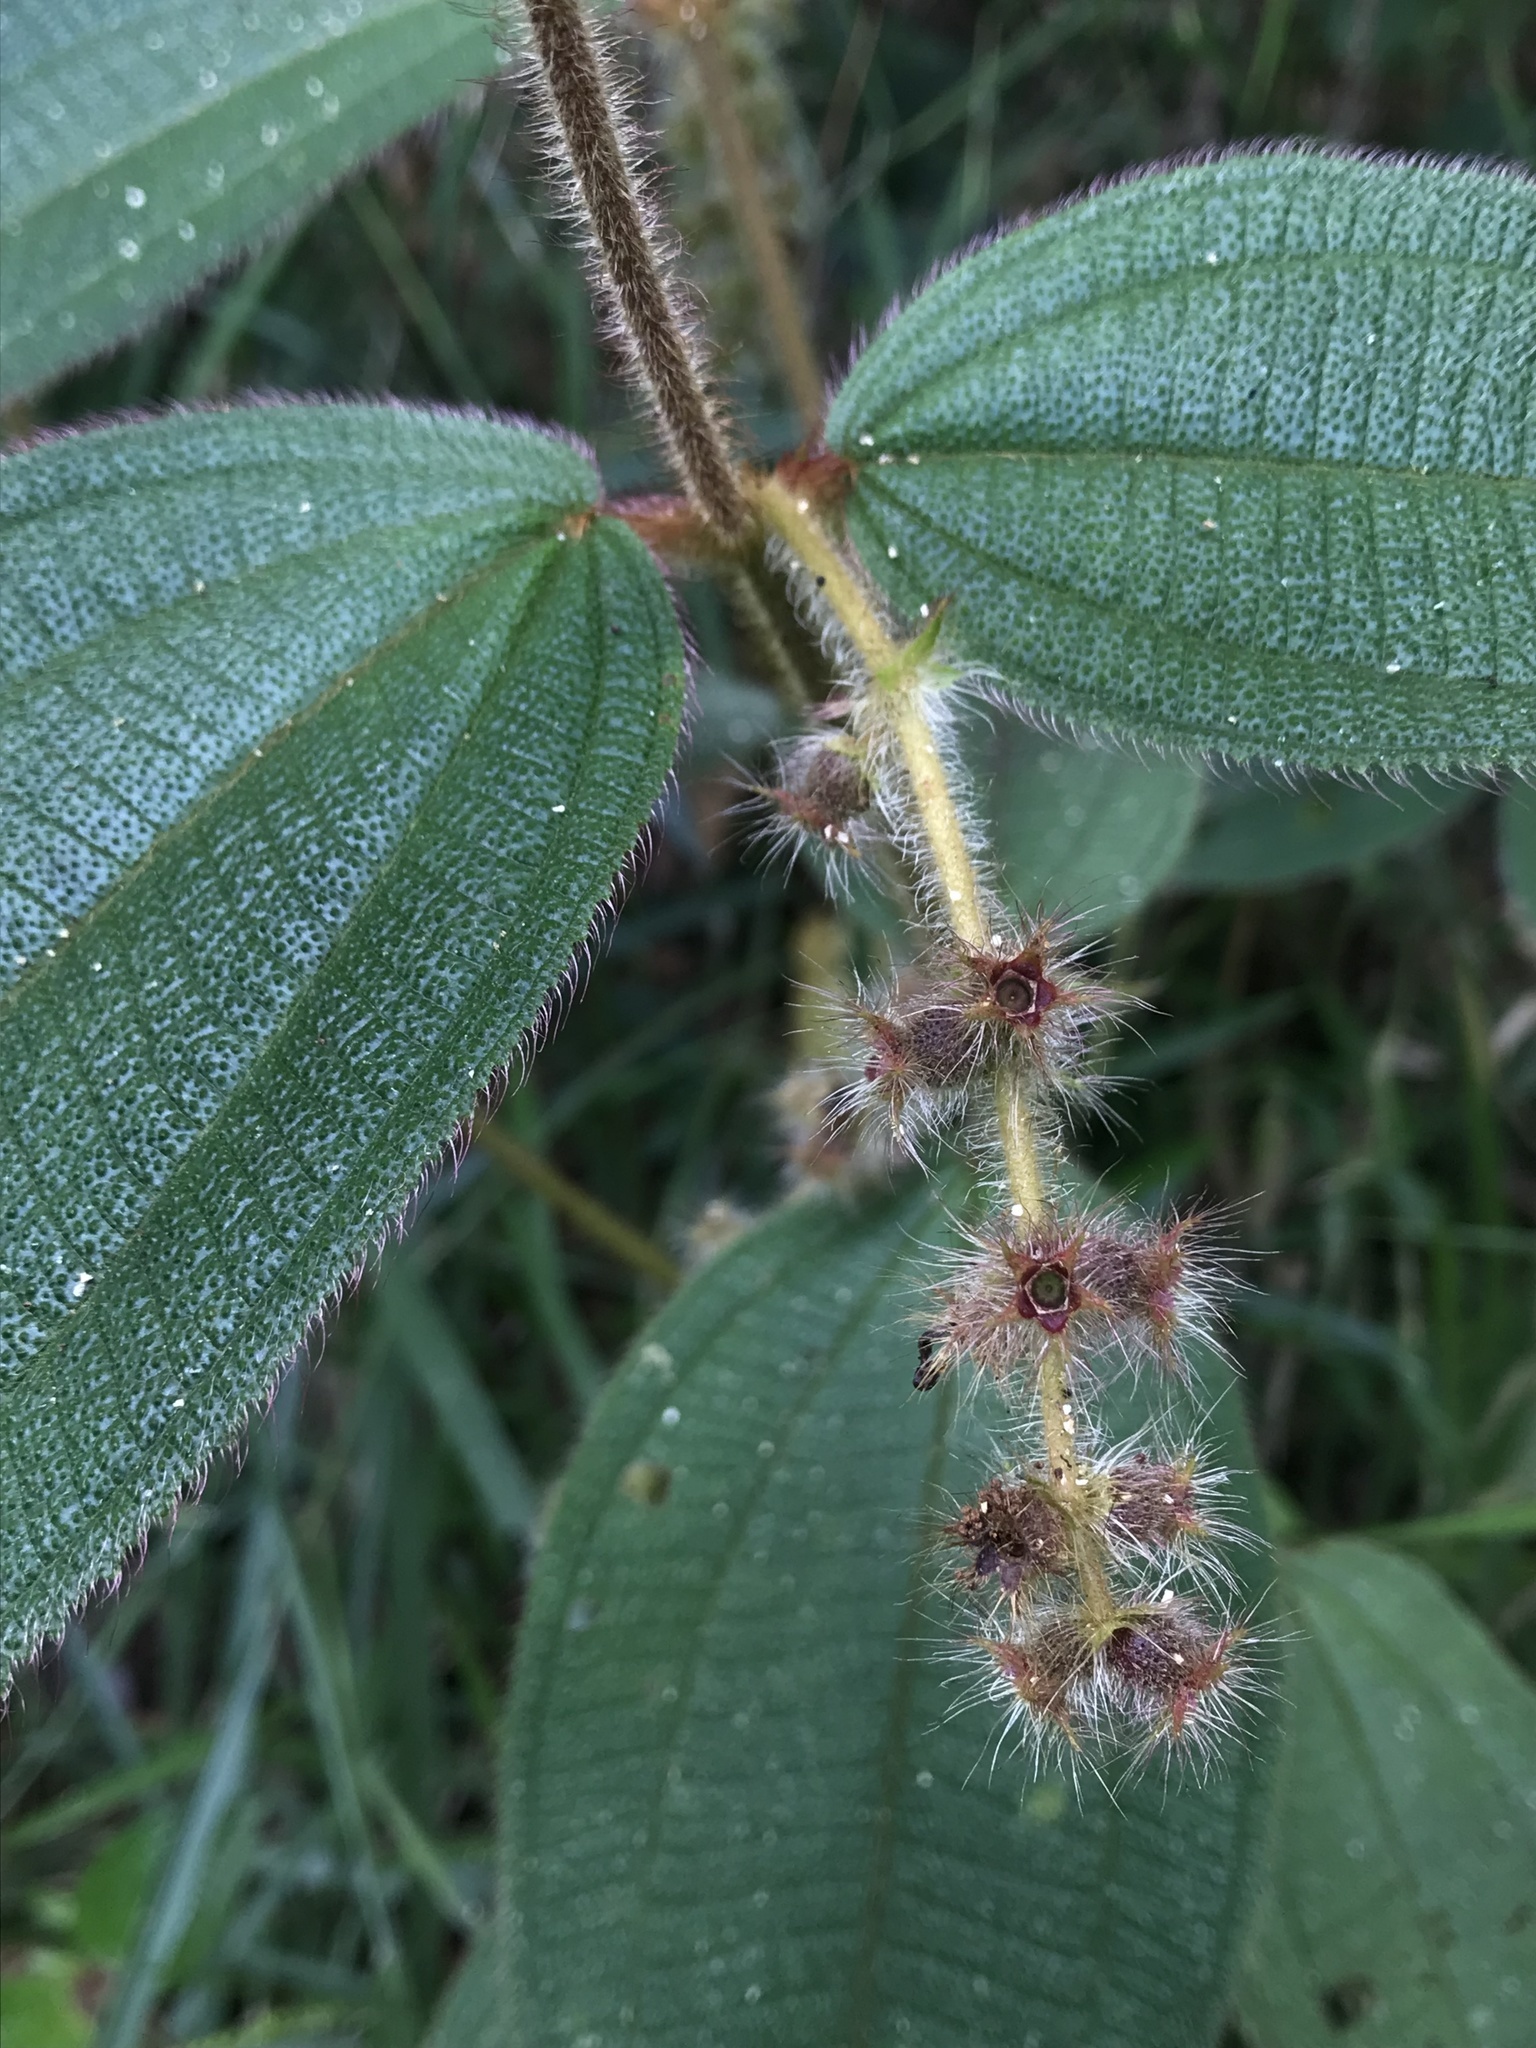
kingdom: Plantae
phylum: Tracheophyta
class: Magnoliopsida
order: Myrtales
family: Melastomataceae
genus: Miconia
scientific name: Miconia dependens
